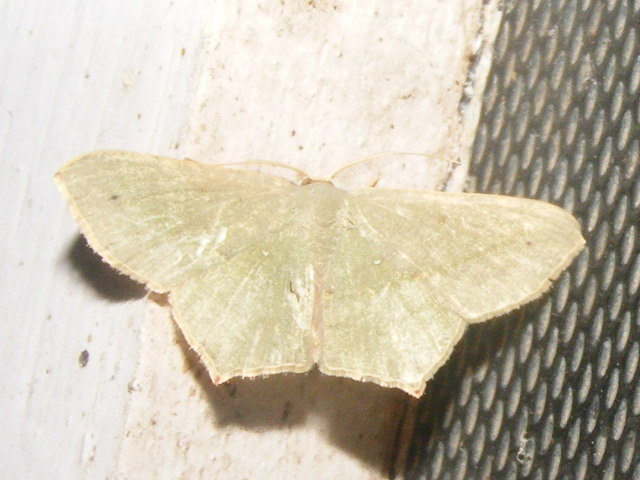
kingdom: Animalia
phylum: Arthropoda
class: Insecta
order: Lepidoptera
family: Geometridae
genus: Traminda
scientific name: Traminda mundissima
